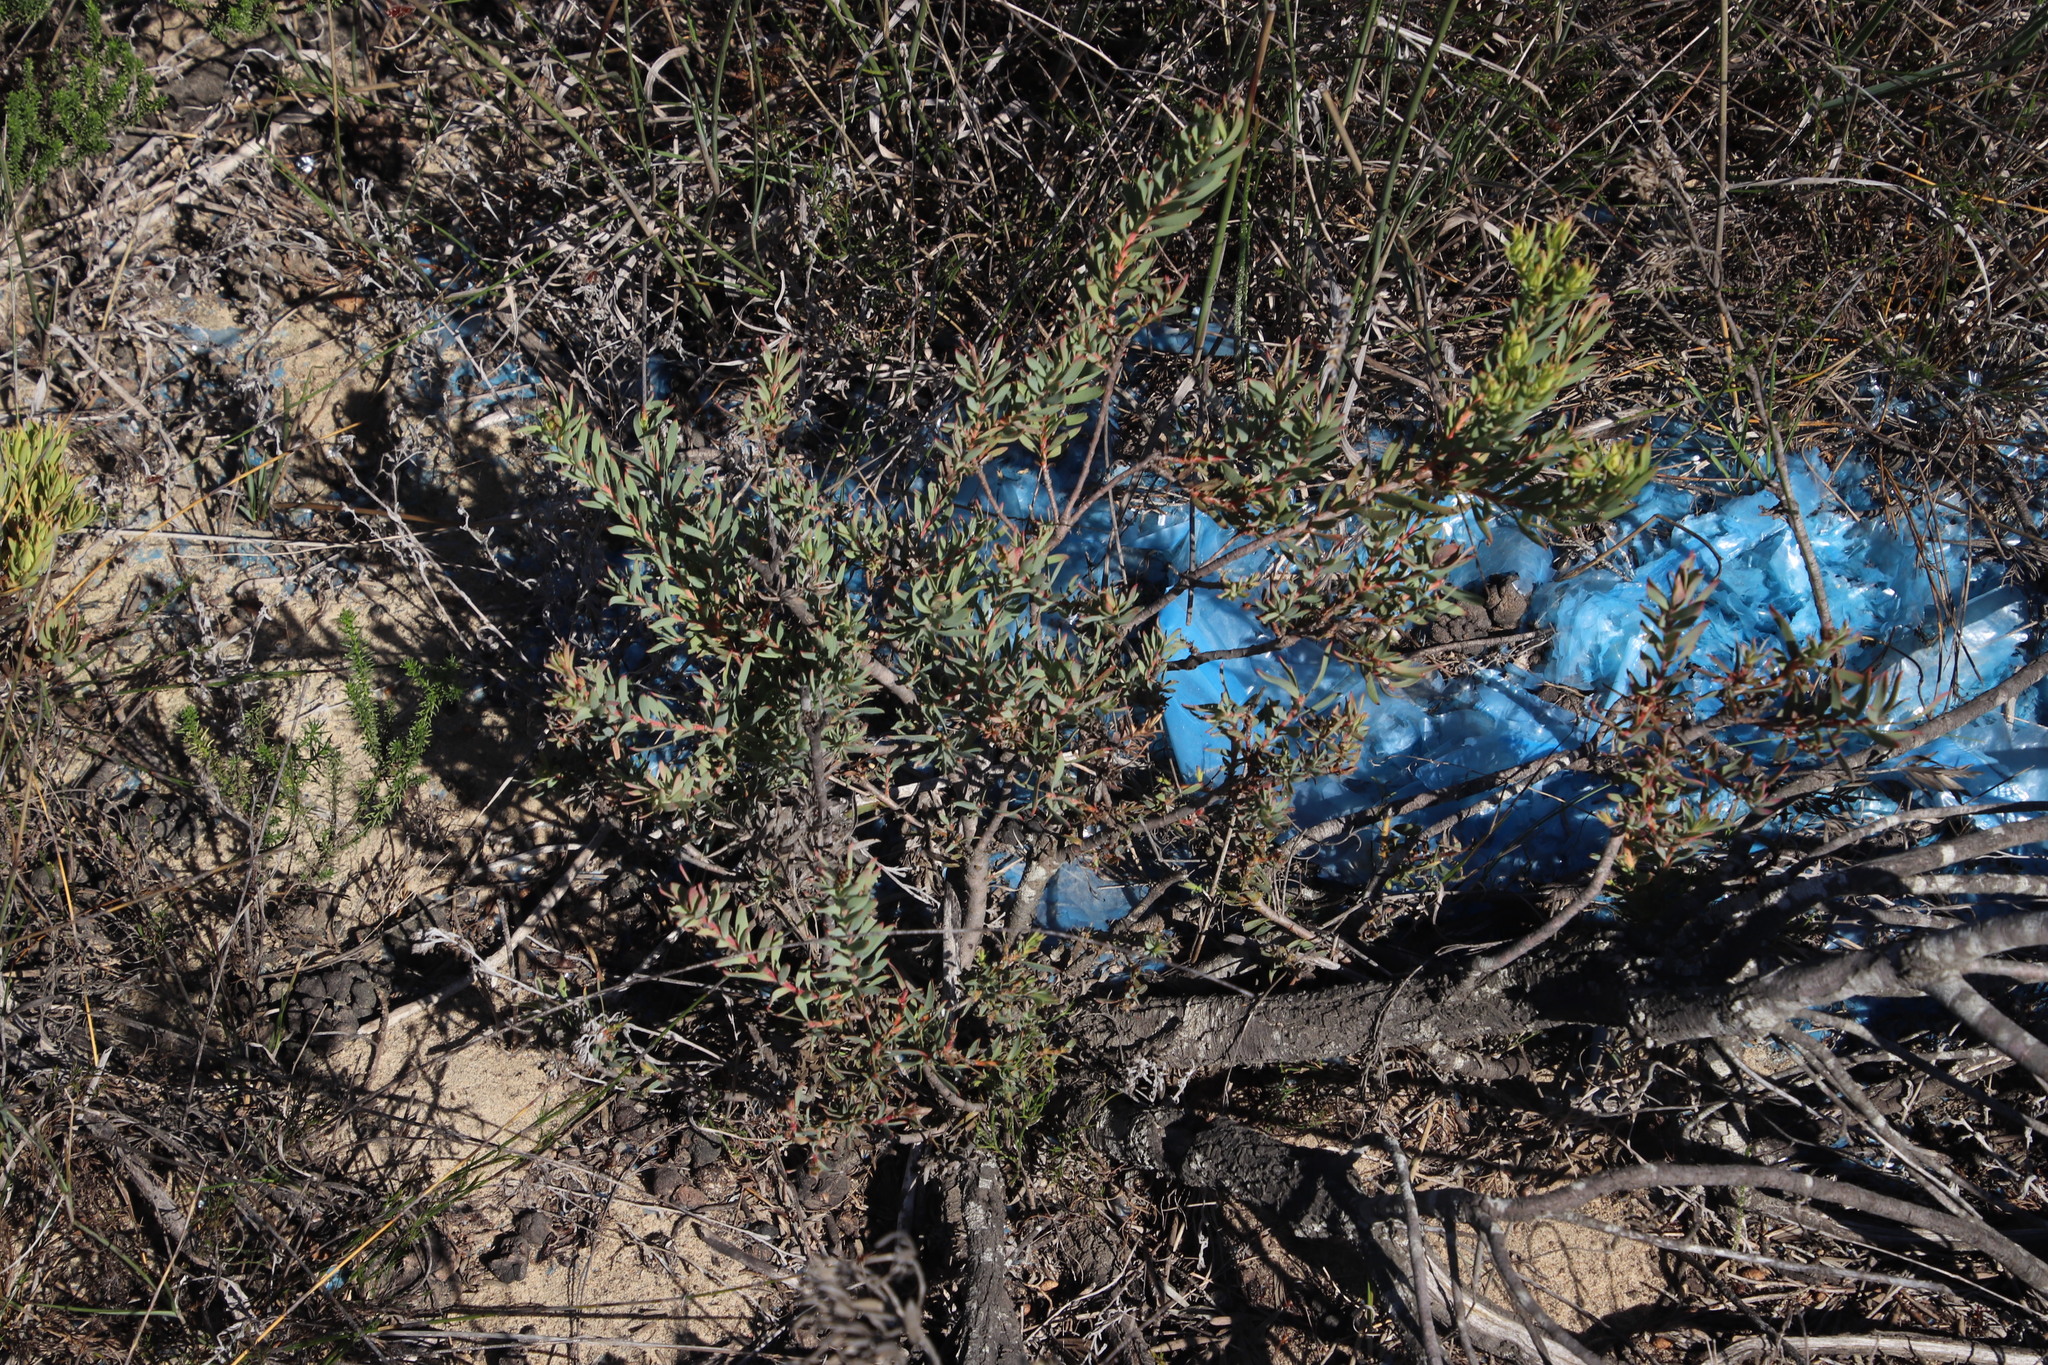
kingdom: Plantae
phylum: Tracheophyta
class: Magnoliopsida
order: Proteales
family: Proteaceae
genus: Leucadendron
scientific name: Leucadendron lanigerum
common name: Shale conebush
